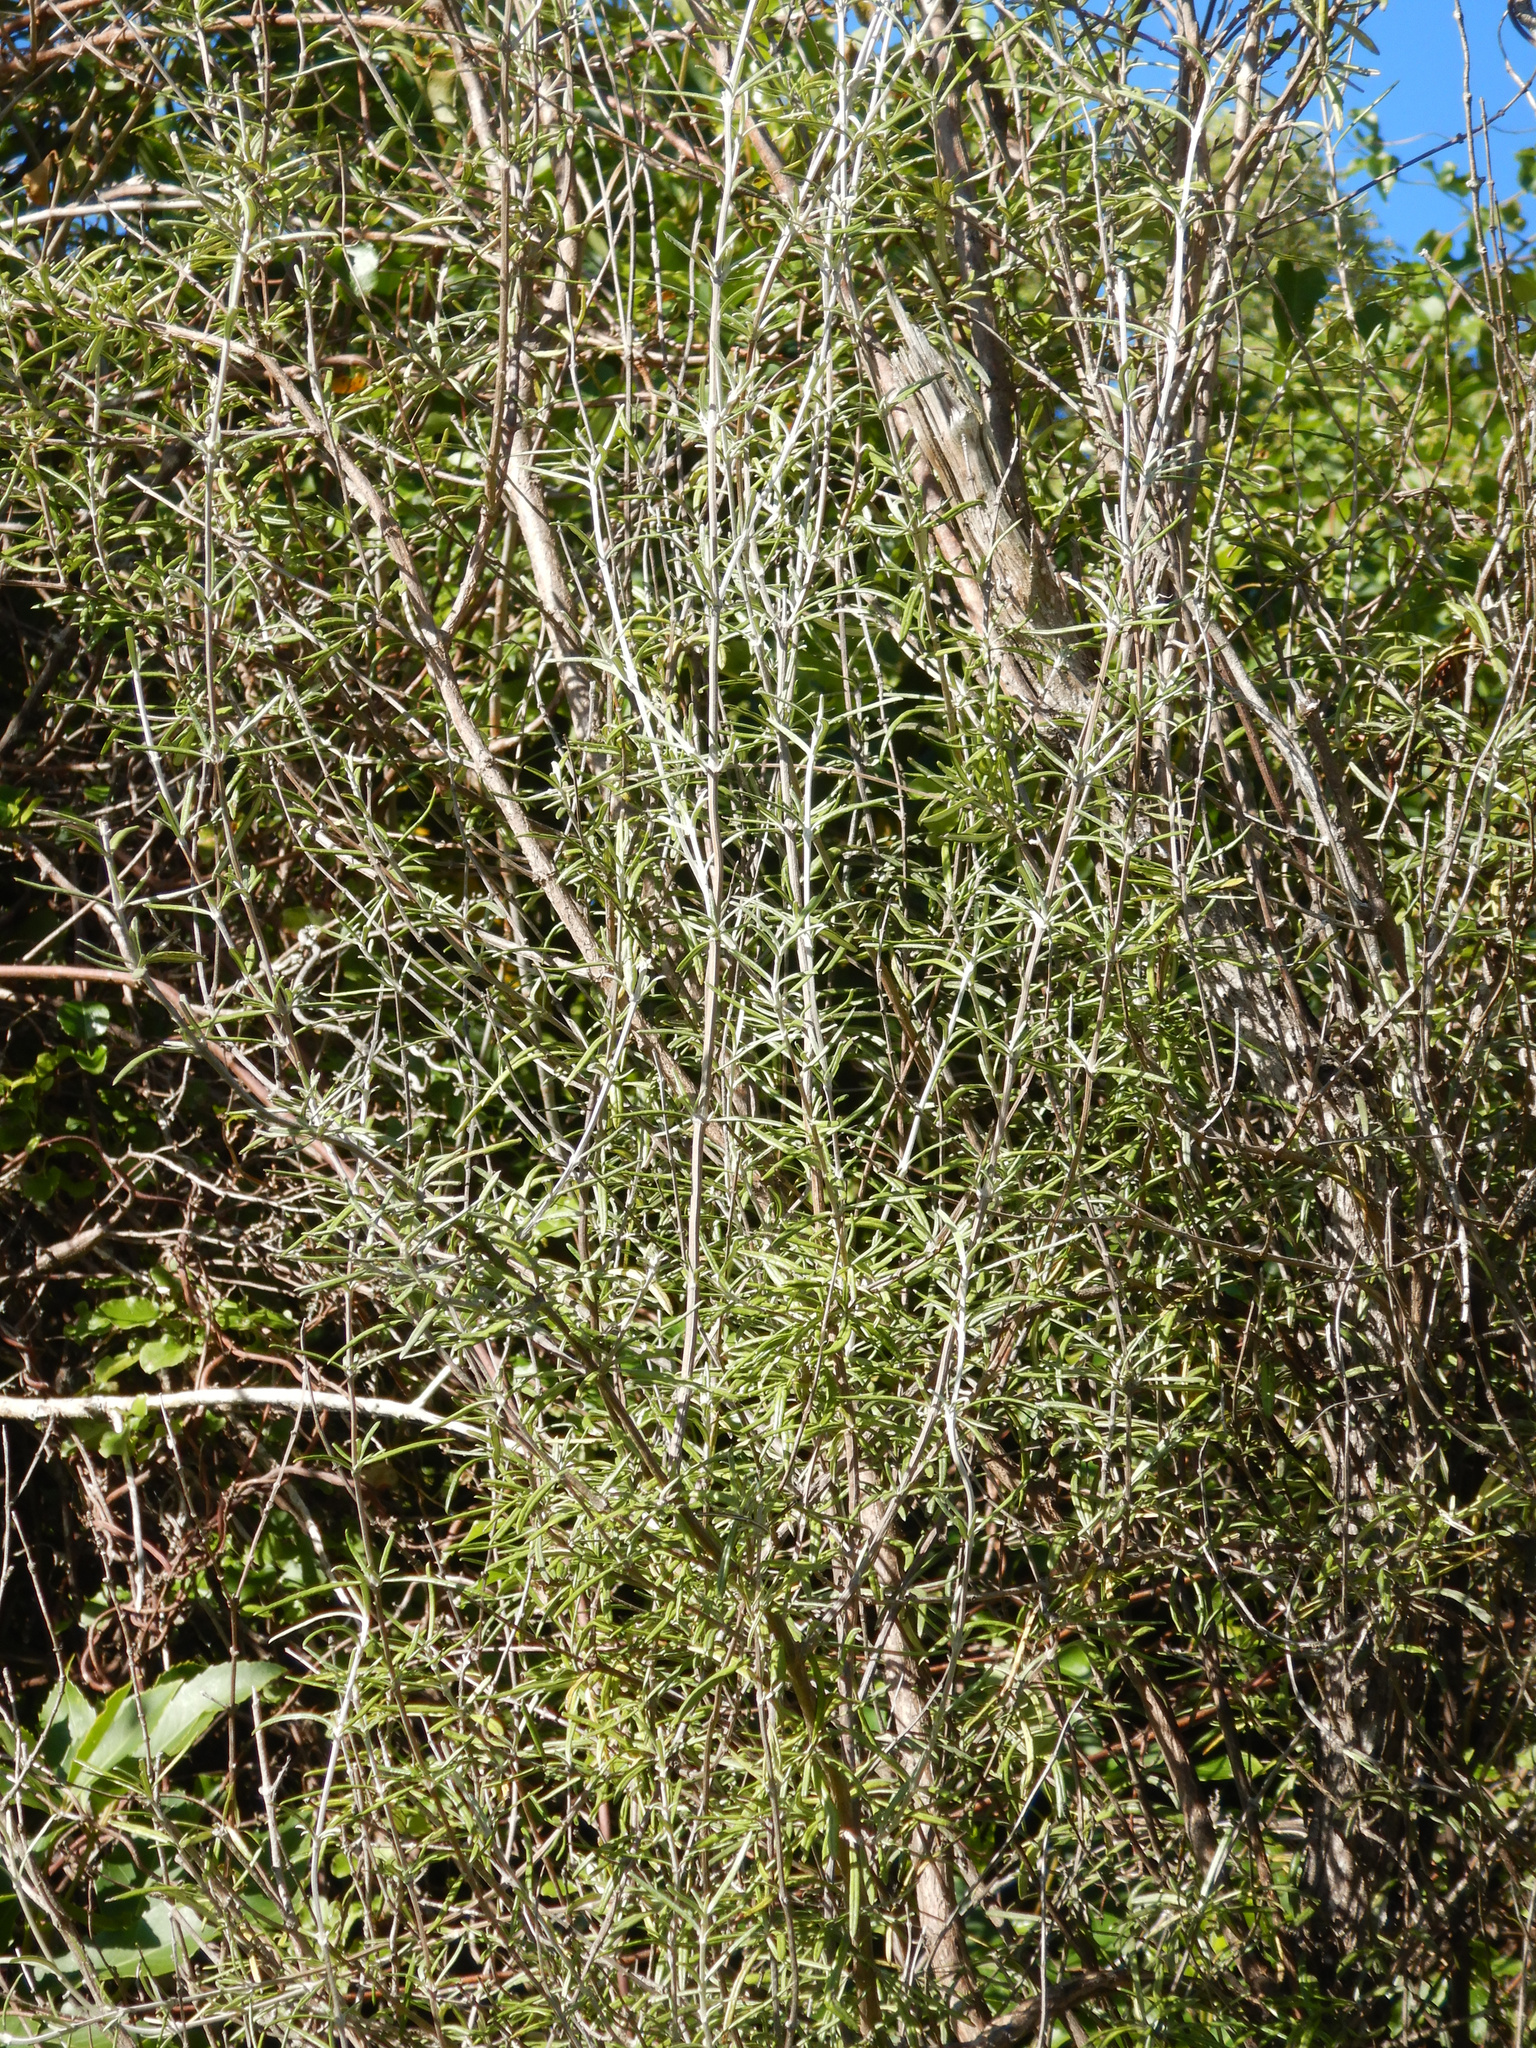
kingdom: Plantae
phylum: Tracheophyta
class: Magnoliopsida
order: Asterales
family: Asteraceae
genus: Olearia
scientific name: Olearia lineata
